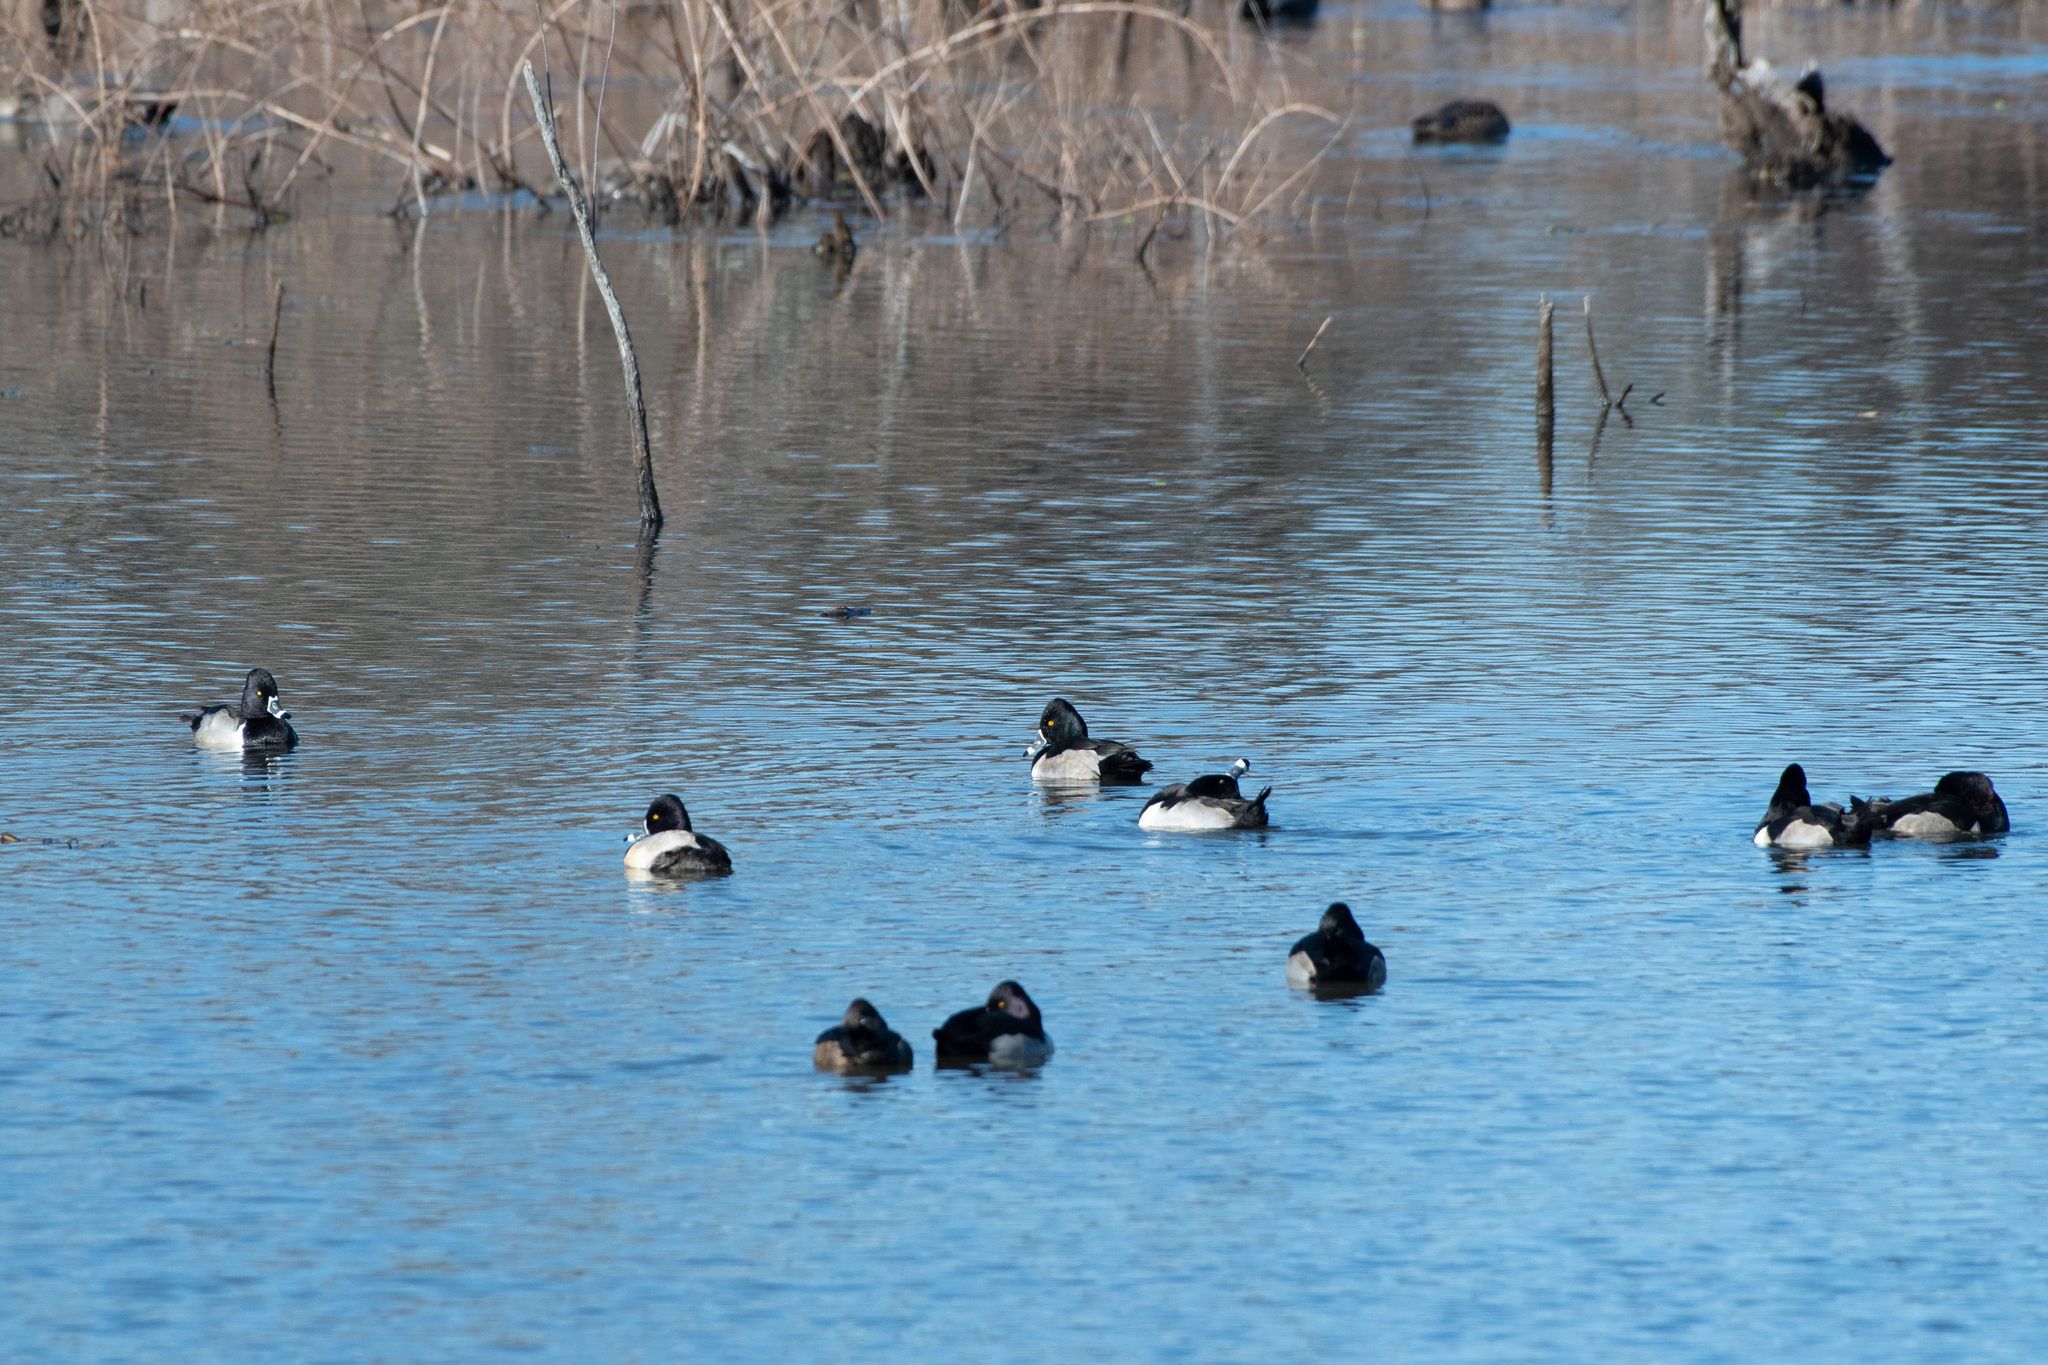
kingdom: Animalia
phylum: Chordata
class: Aves
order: Anseriformes
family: Anatidae
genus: Aythya
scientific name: Aythya collaris
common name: Ring-necked duck
